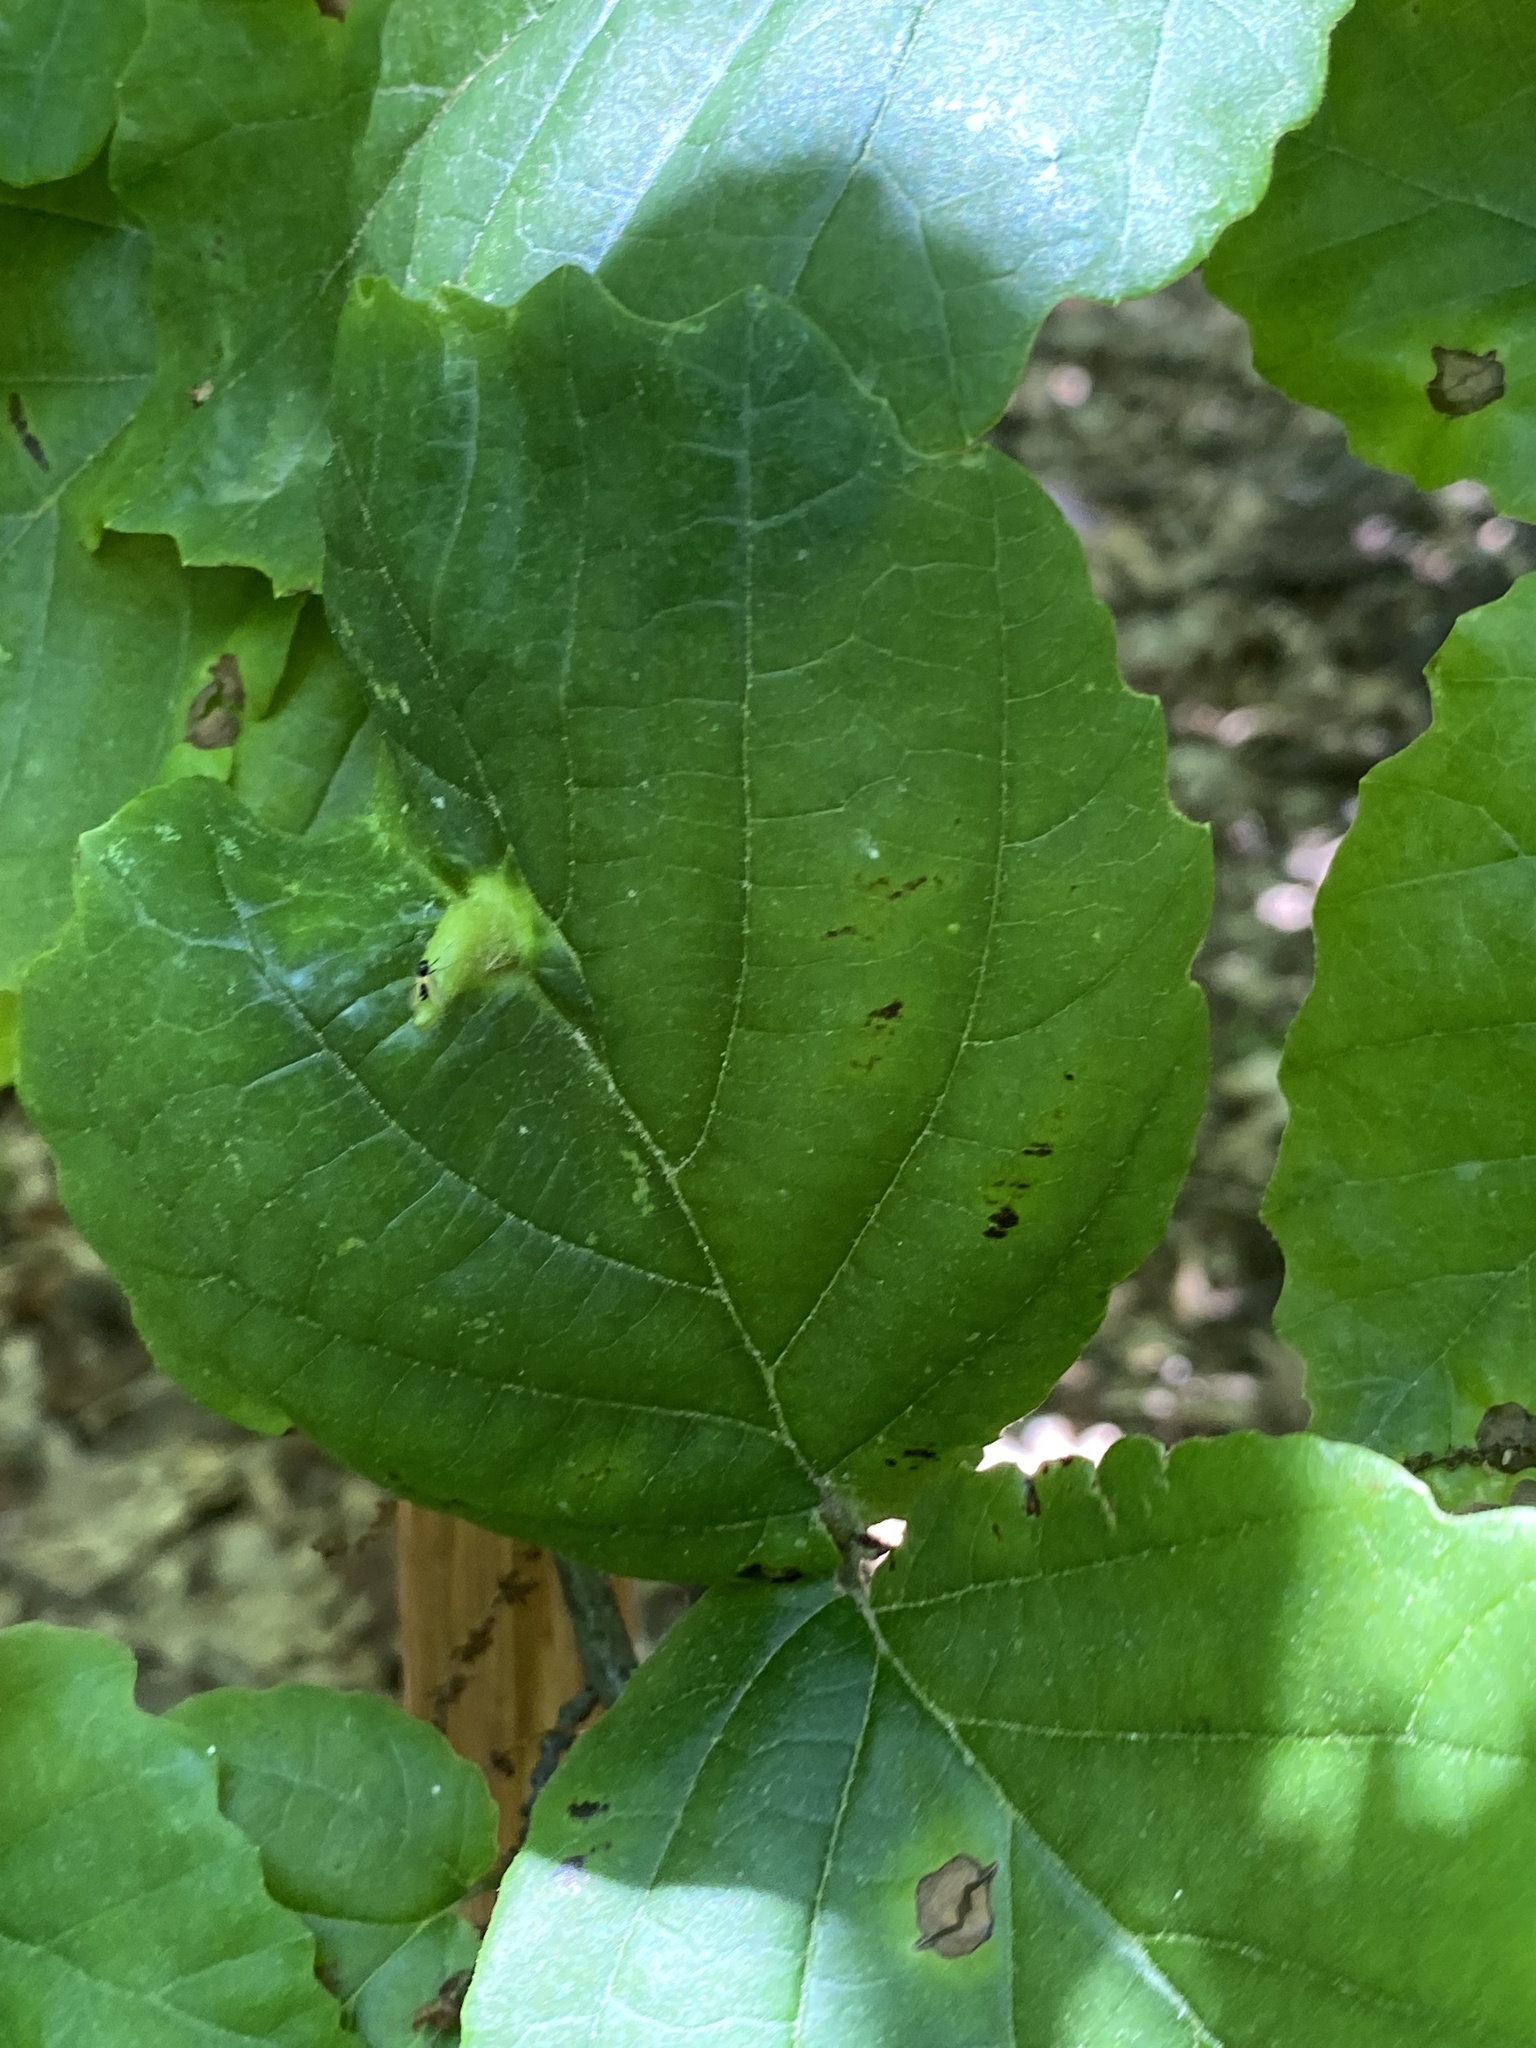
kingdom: Animalia
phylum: Arthropoda
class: Insecta
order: Hemiptera
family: Aphididae
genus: Hormaphis
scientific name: Hormaphis hamamelidis
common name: Witch-hazel cone gall aphid
